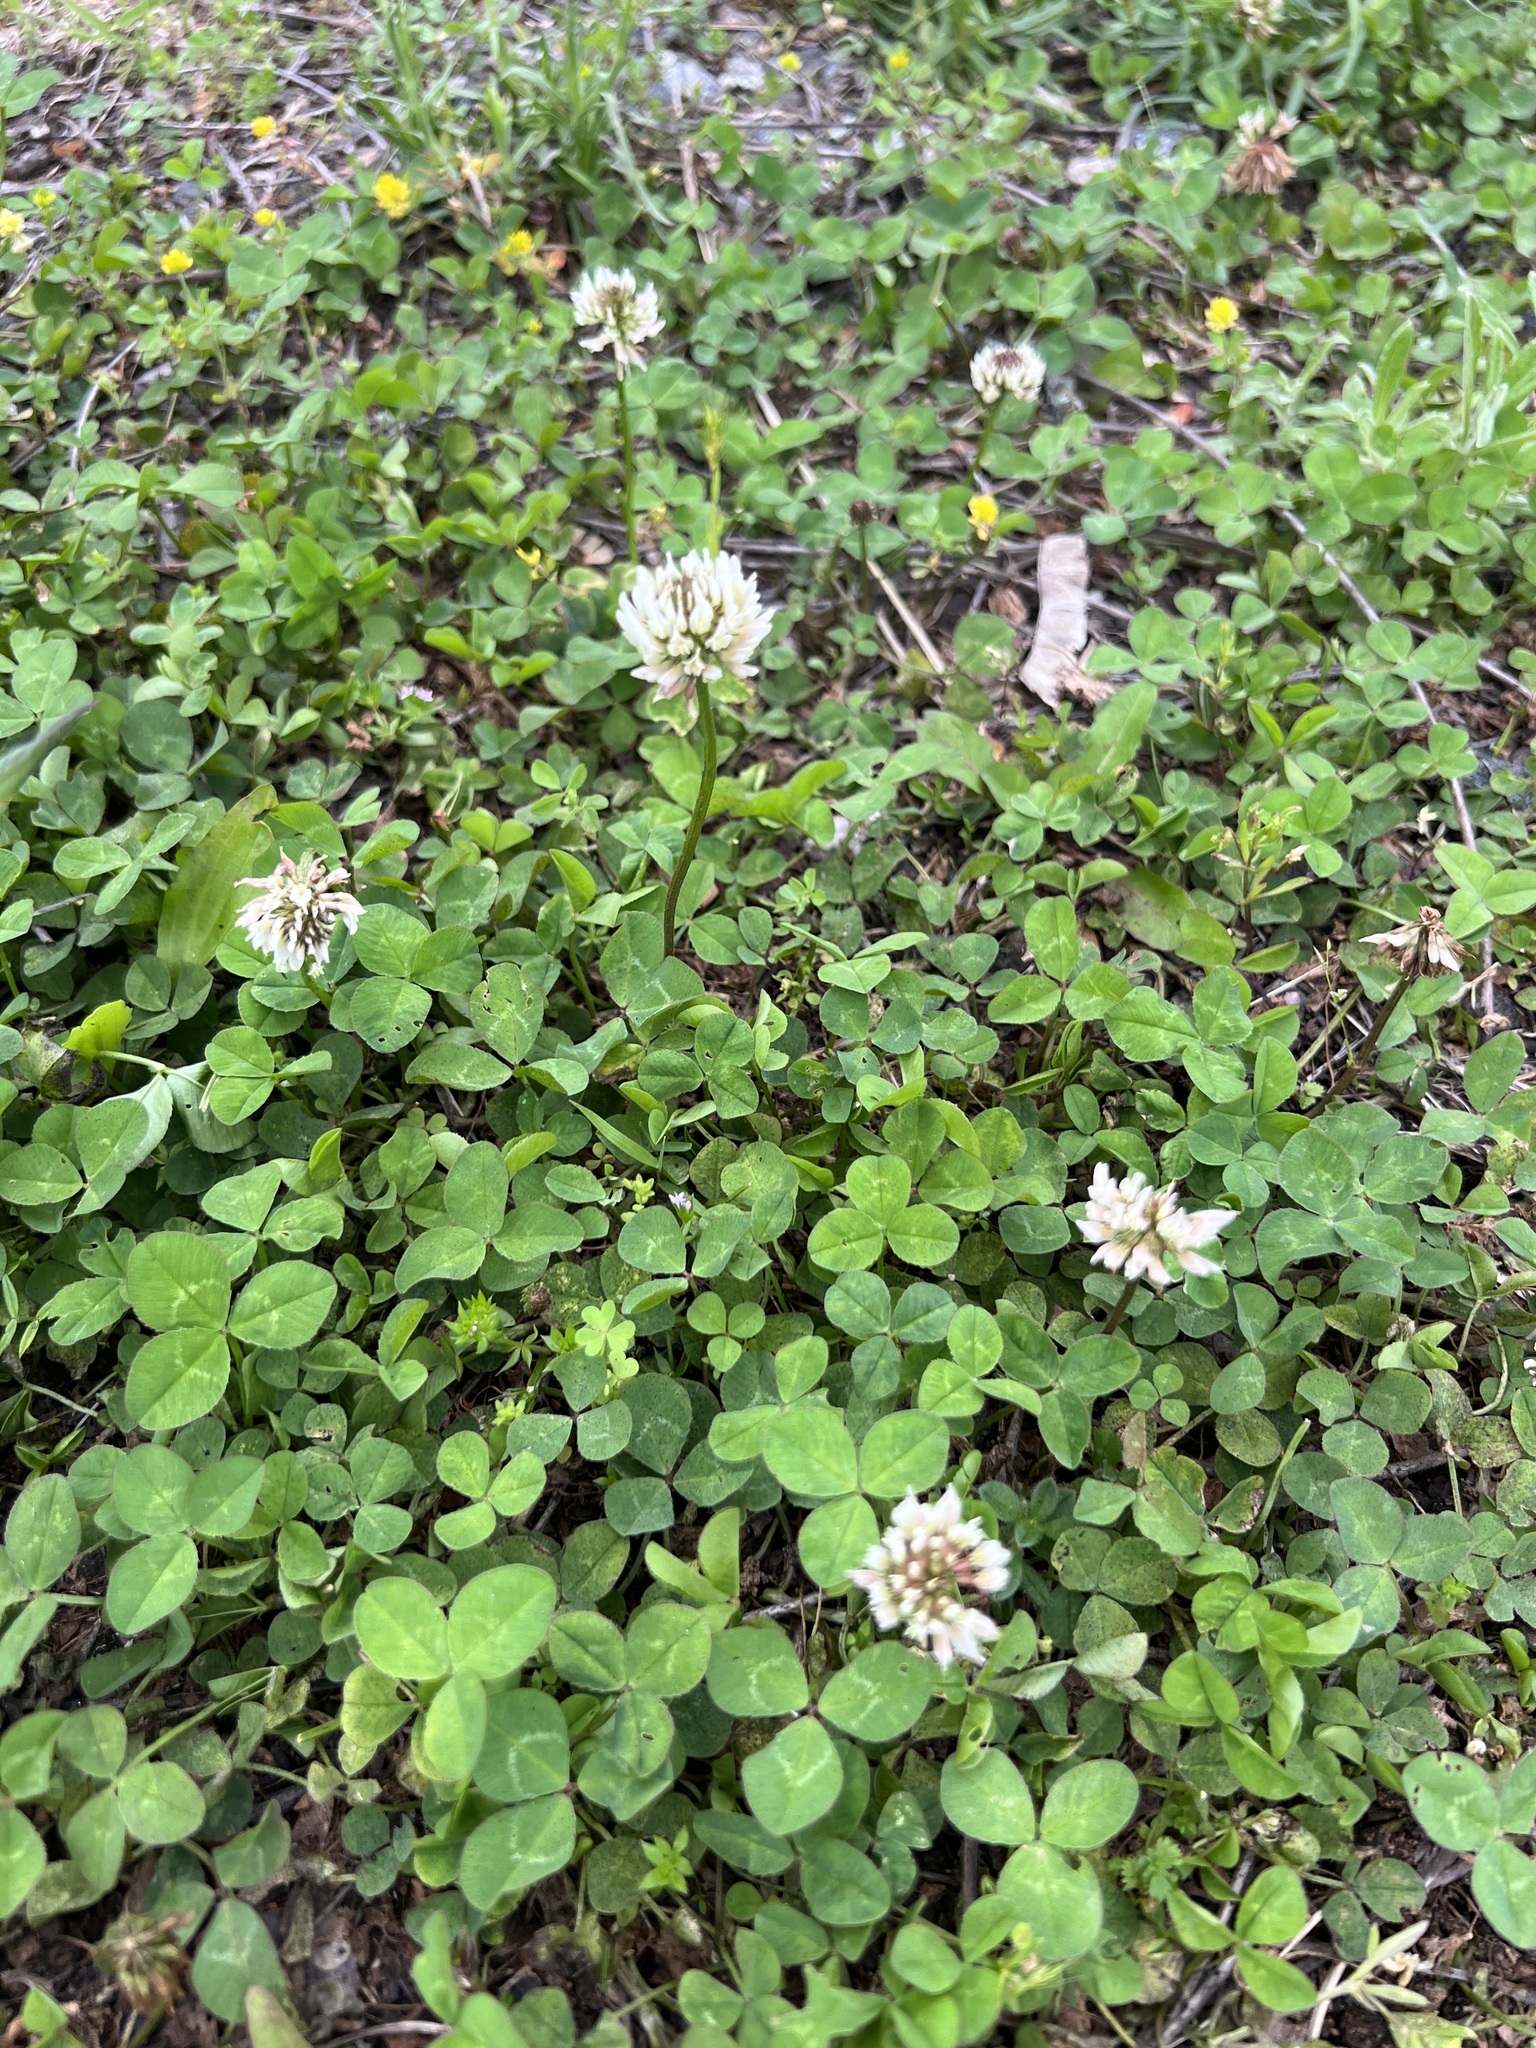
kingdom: Plantae
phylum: Tracheophyta
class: Magnoliopsida
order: Fabales
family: Fabaceae
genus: Trifolium
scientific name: Trifolium repens
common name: White clover
